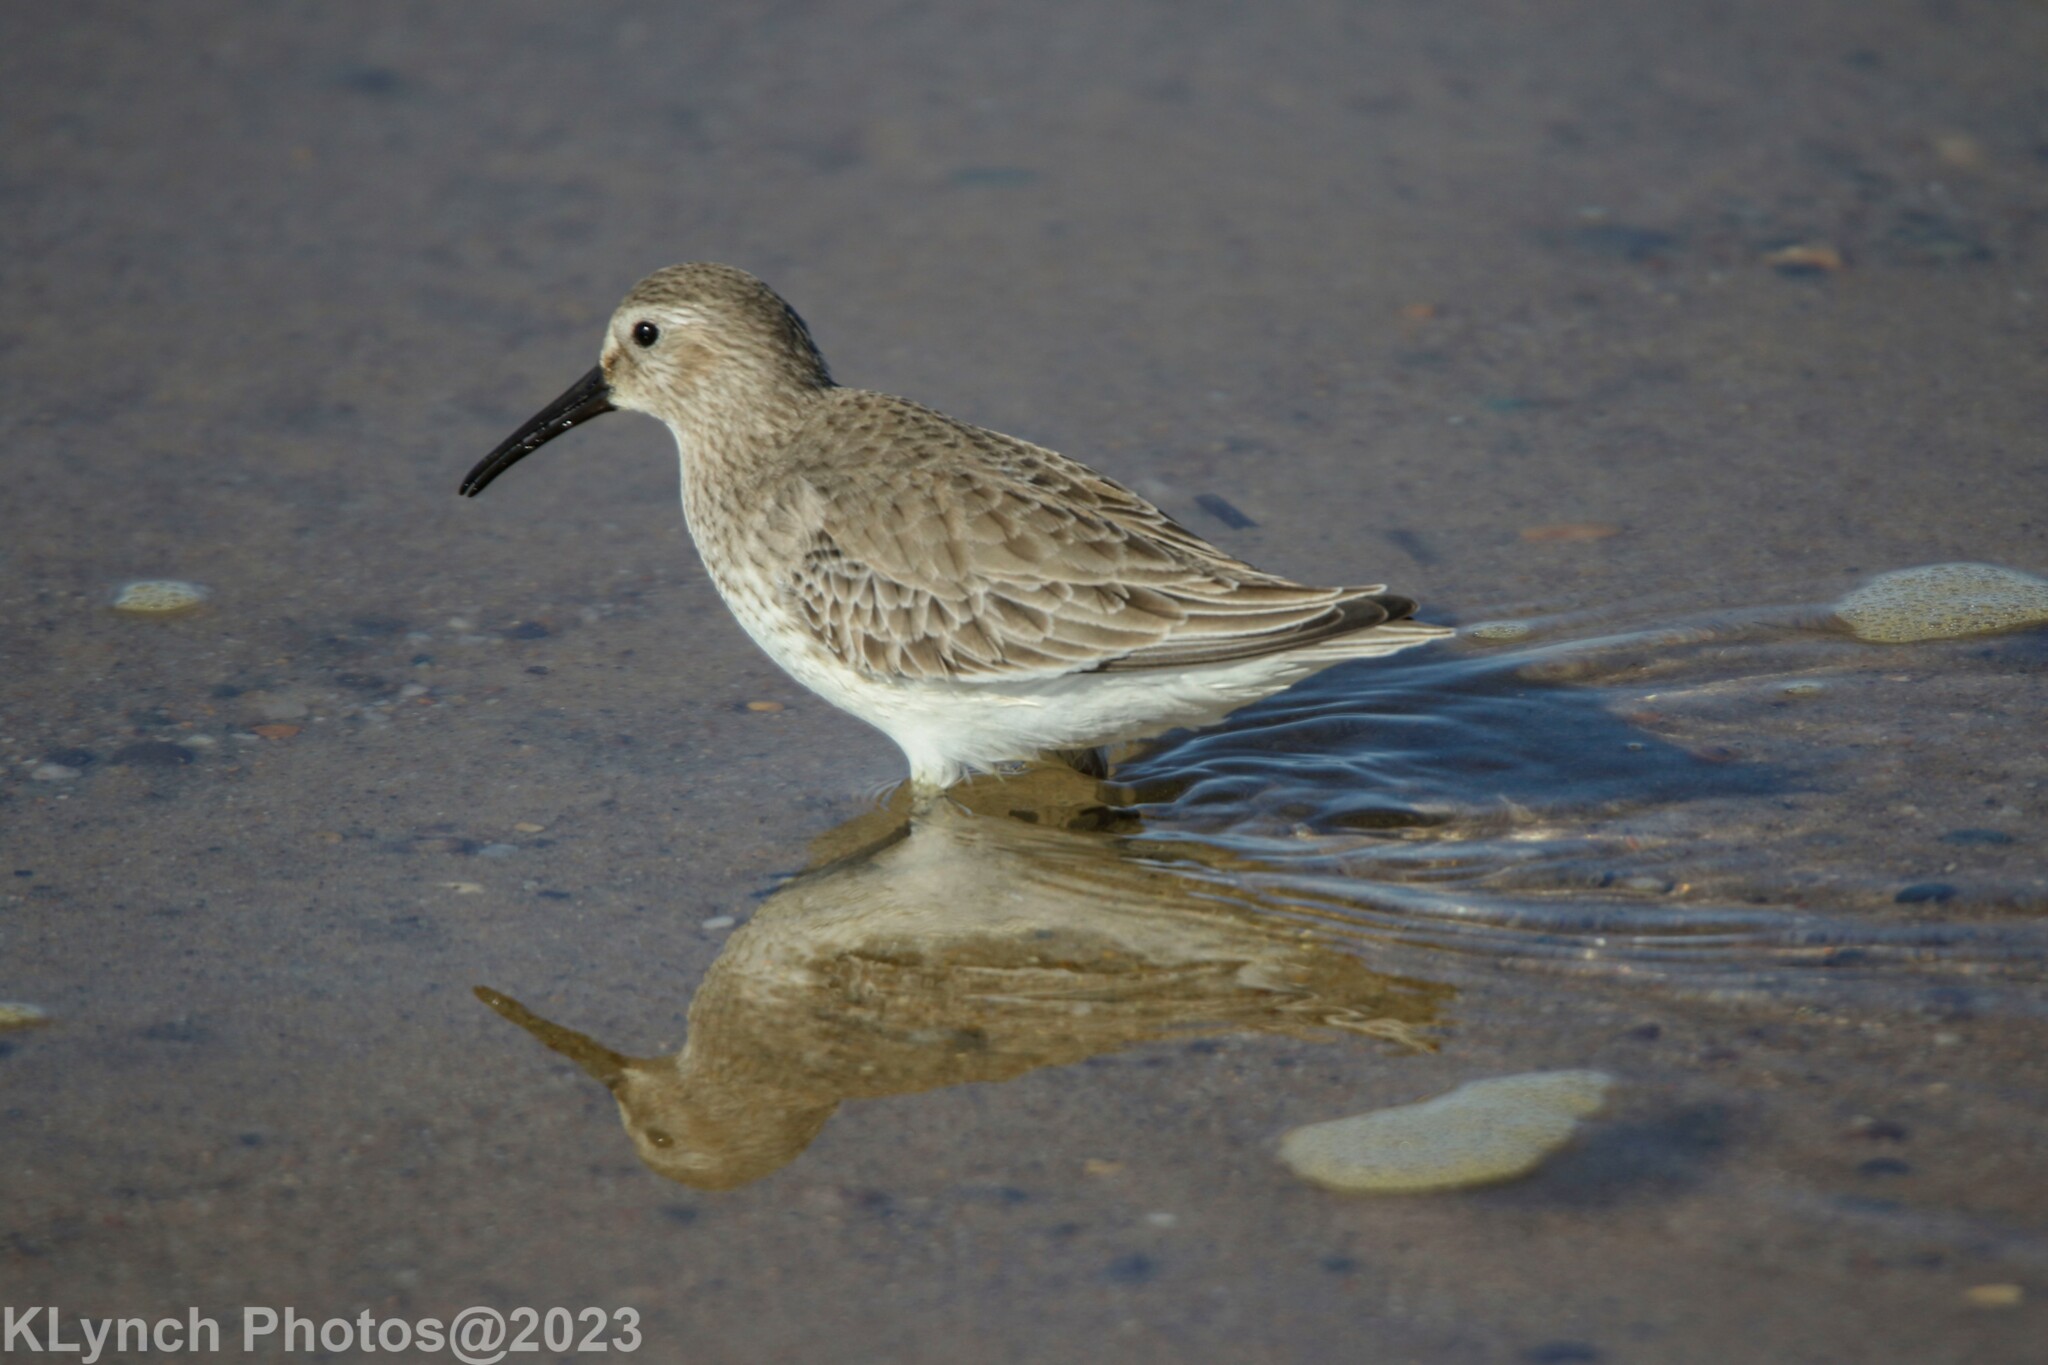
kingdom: Animalia
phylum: Chordata
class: Aves
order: Charadriiformes
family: Scolopacidae
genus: Calidris
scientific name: Calidris alpina
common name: Dunlin
